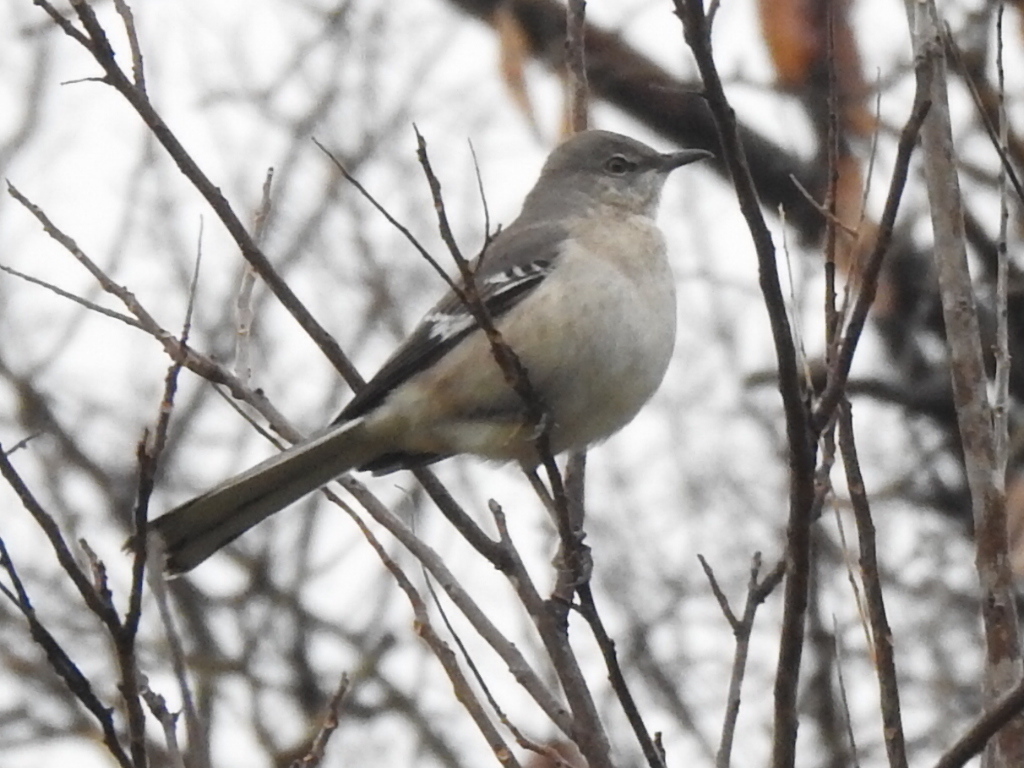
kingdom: Animalia
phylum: Chordata
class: Aves
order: Passeriformes
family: Mimidae
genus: Mimus
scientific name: Mimus polyglottos
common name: Northern mockingbird
